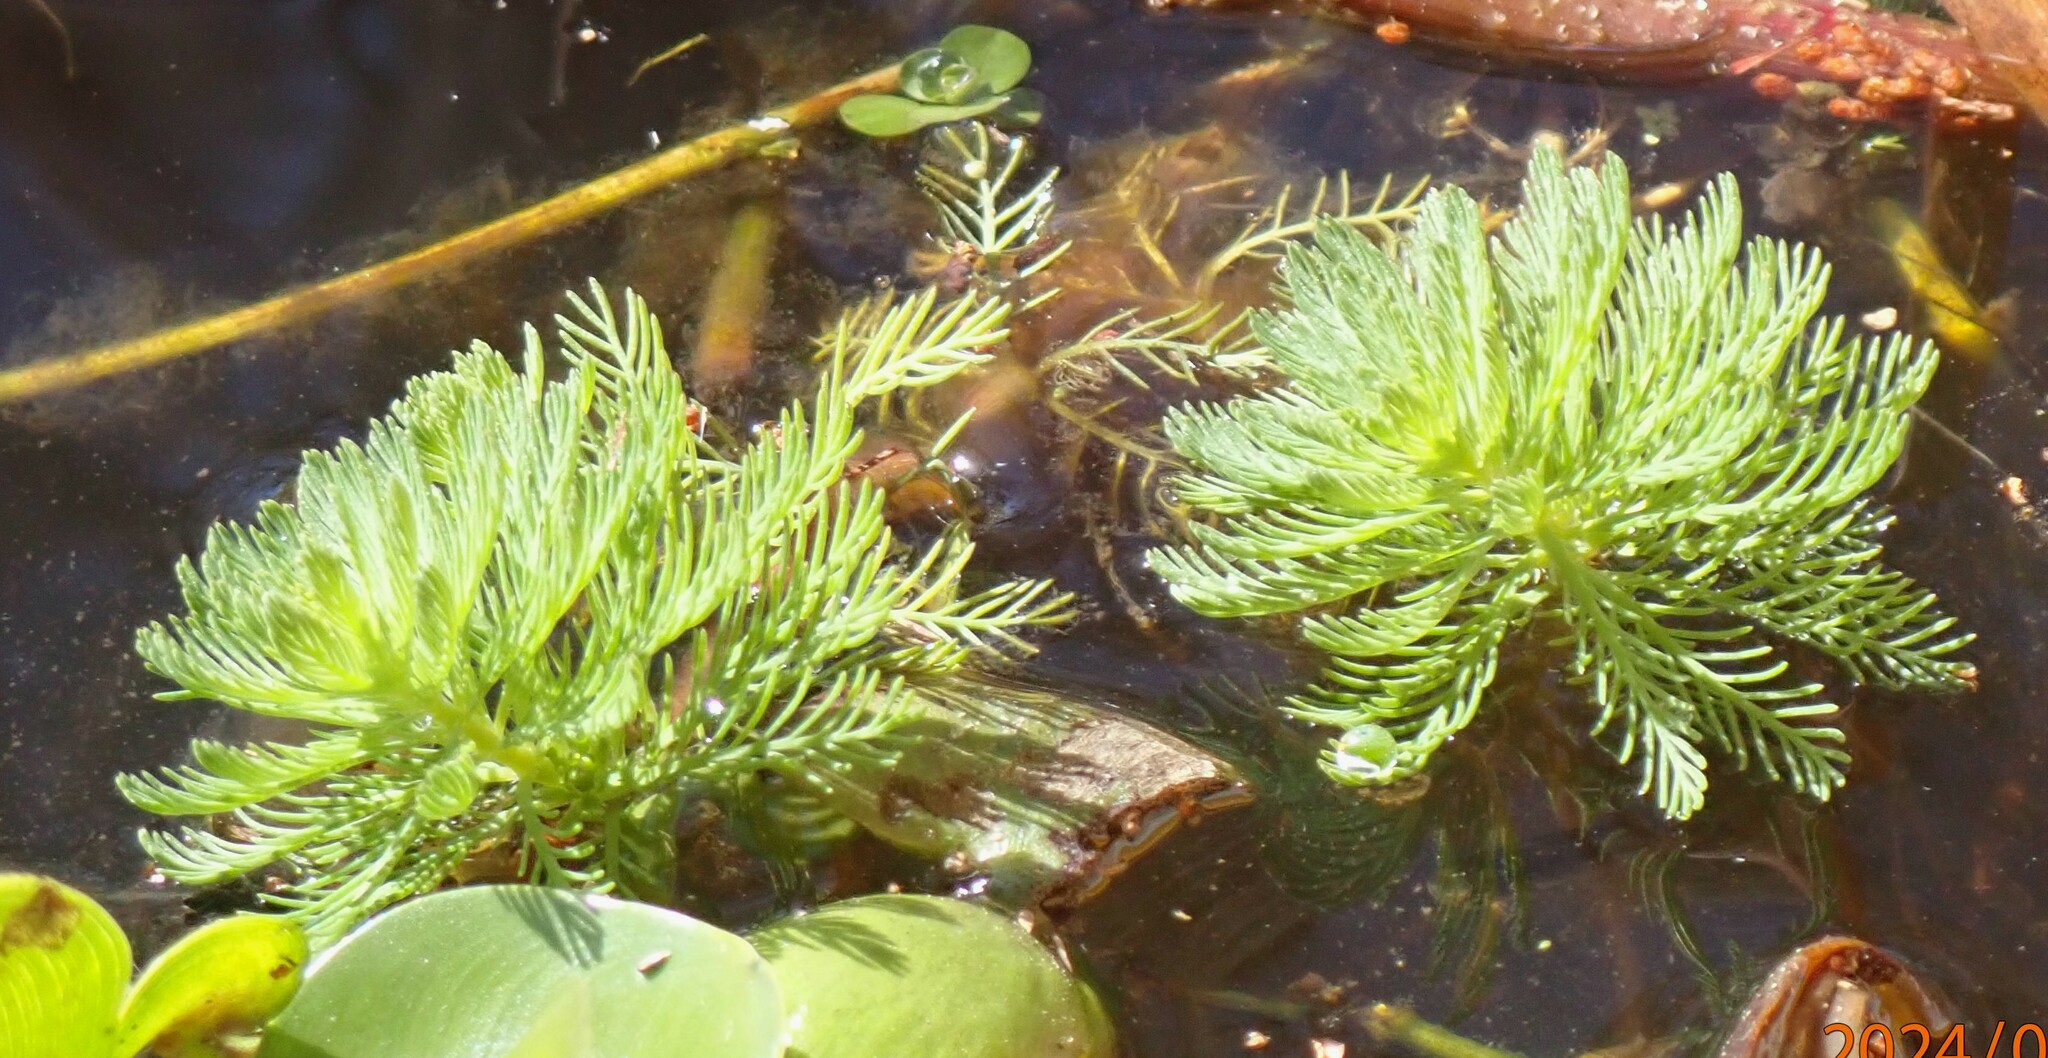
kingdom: Plantae
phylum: Tracheophyta
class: Magnoliopsida
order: Saxifragales
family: Haloragaceae
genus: Myriophyllum
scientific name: Myriophyllum aquaticum
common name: Parrot's feather
